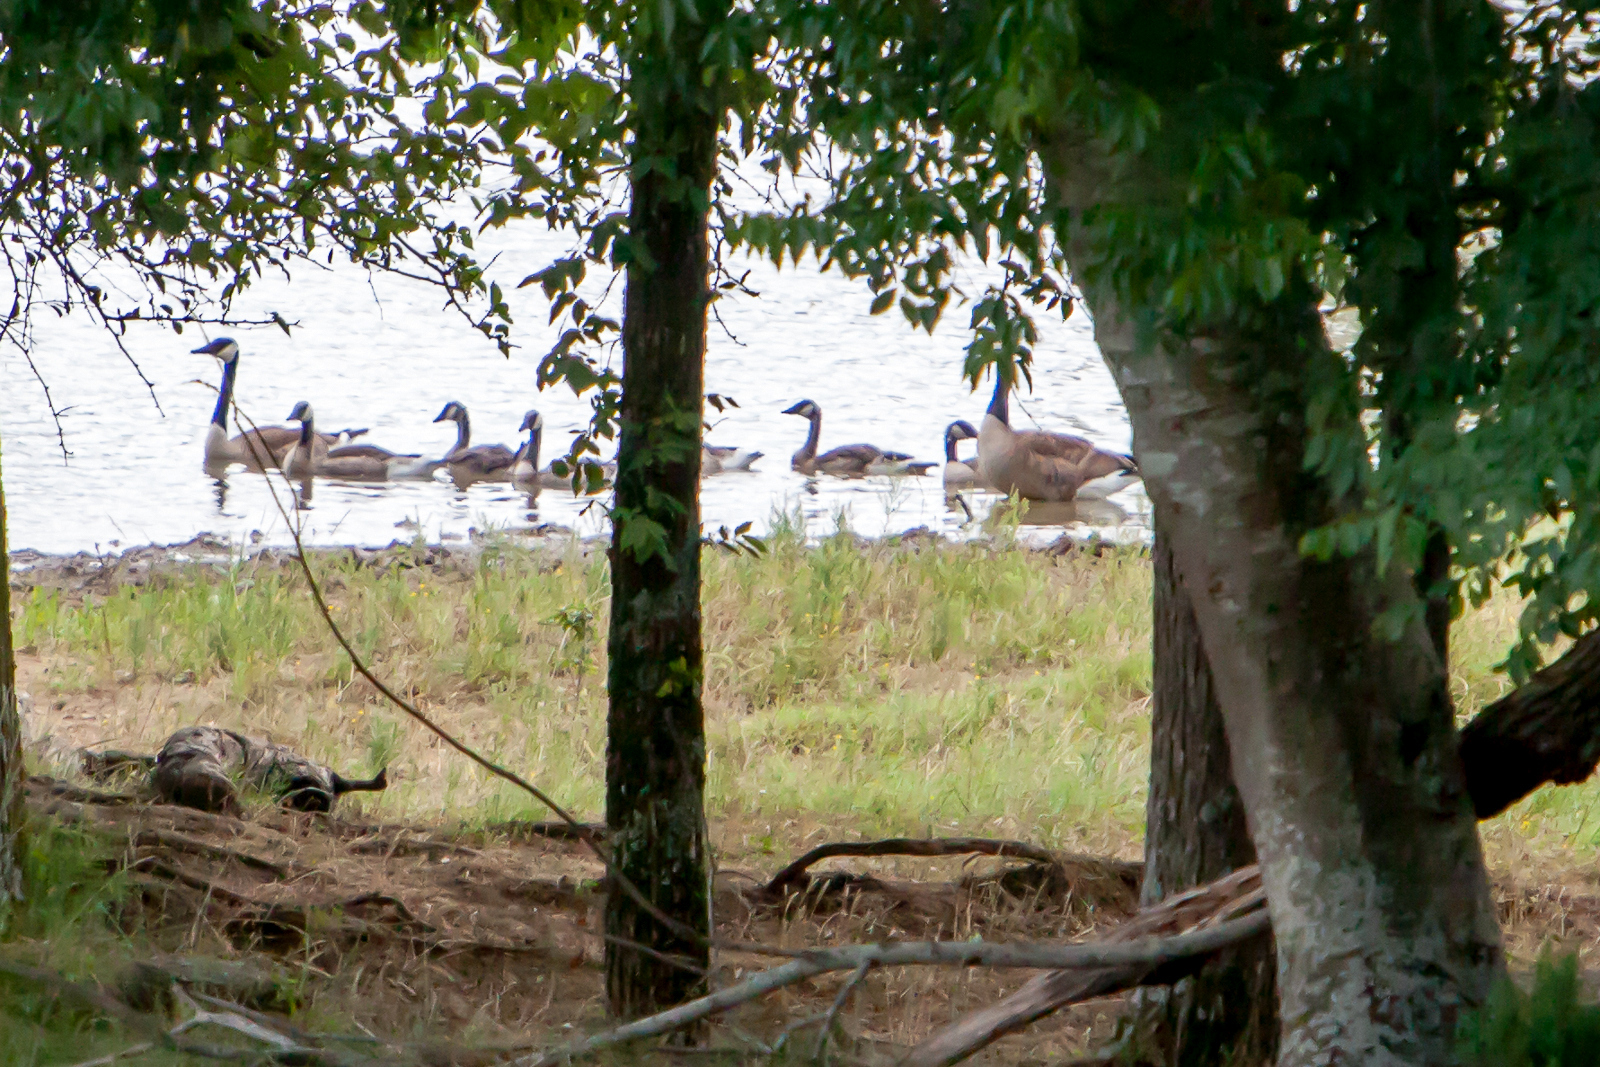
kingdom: Animalia
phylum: Chordata
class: Aves
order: Anseriformes
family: Anatidae
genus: Branta
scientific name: Branta canadensis
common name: Canada goose
